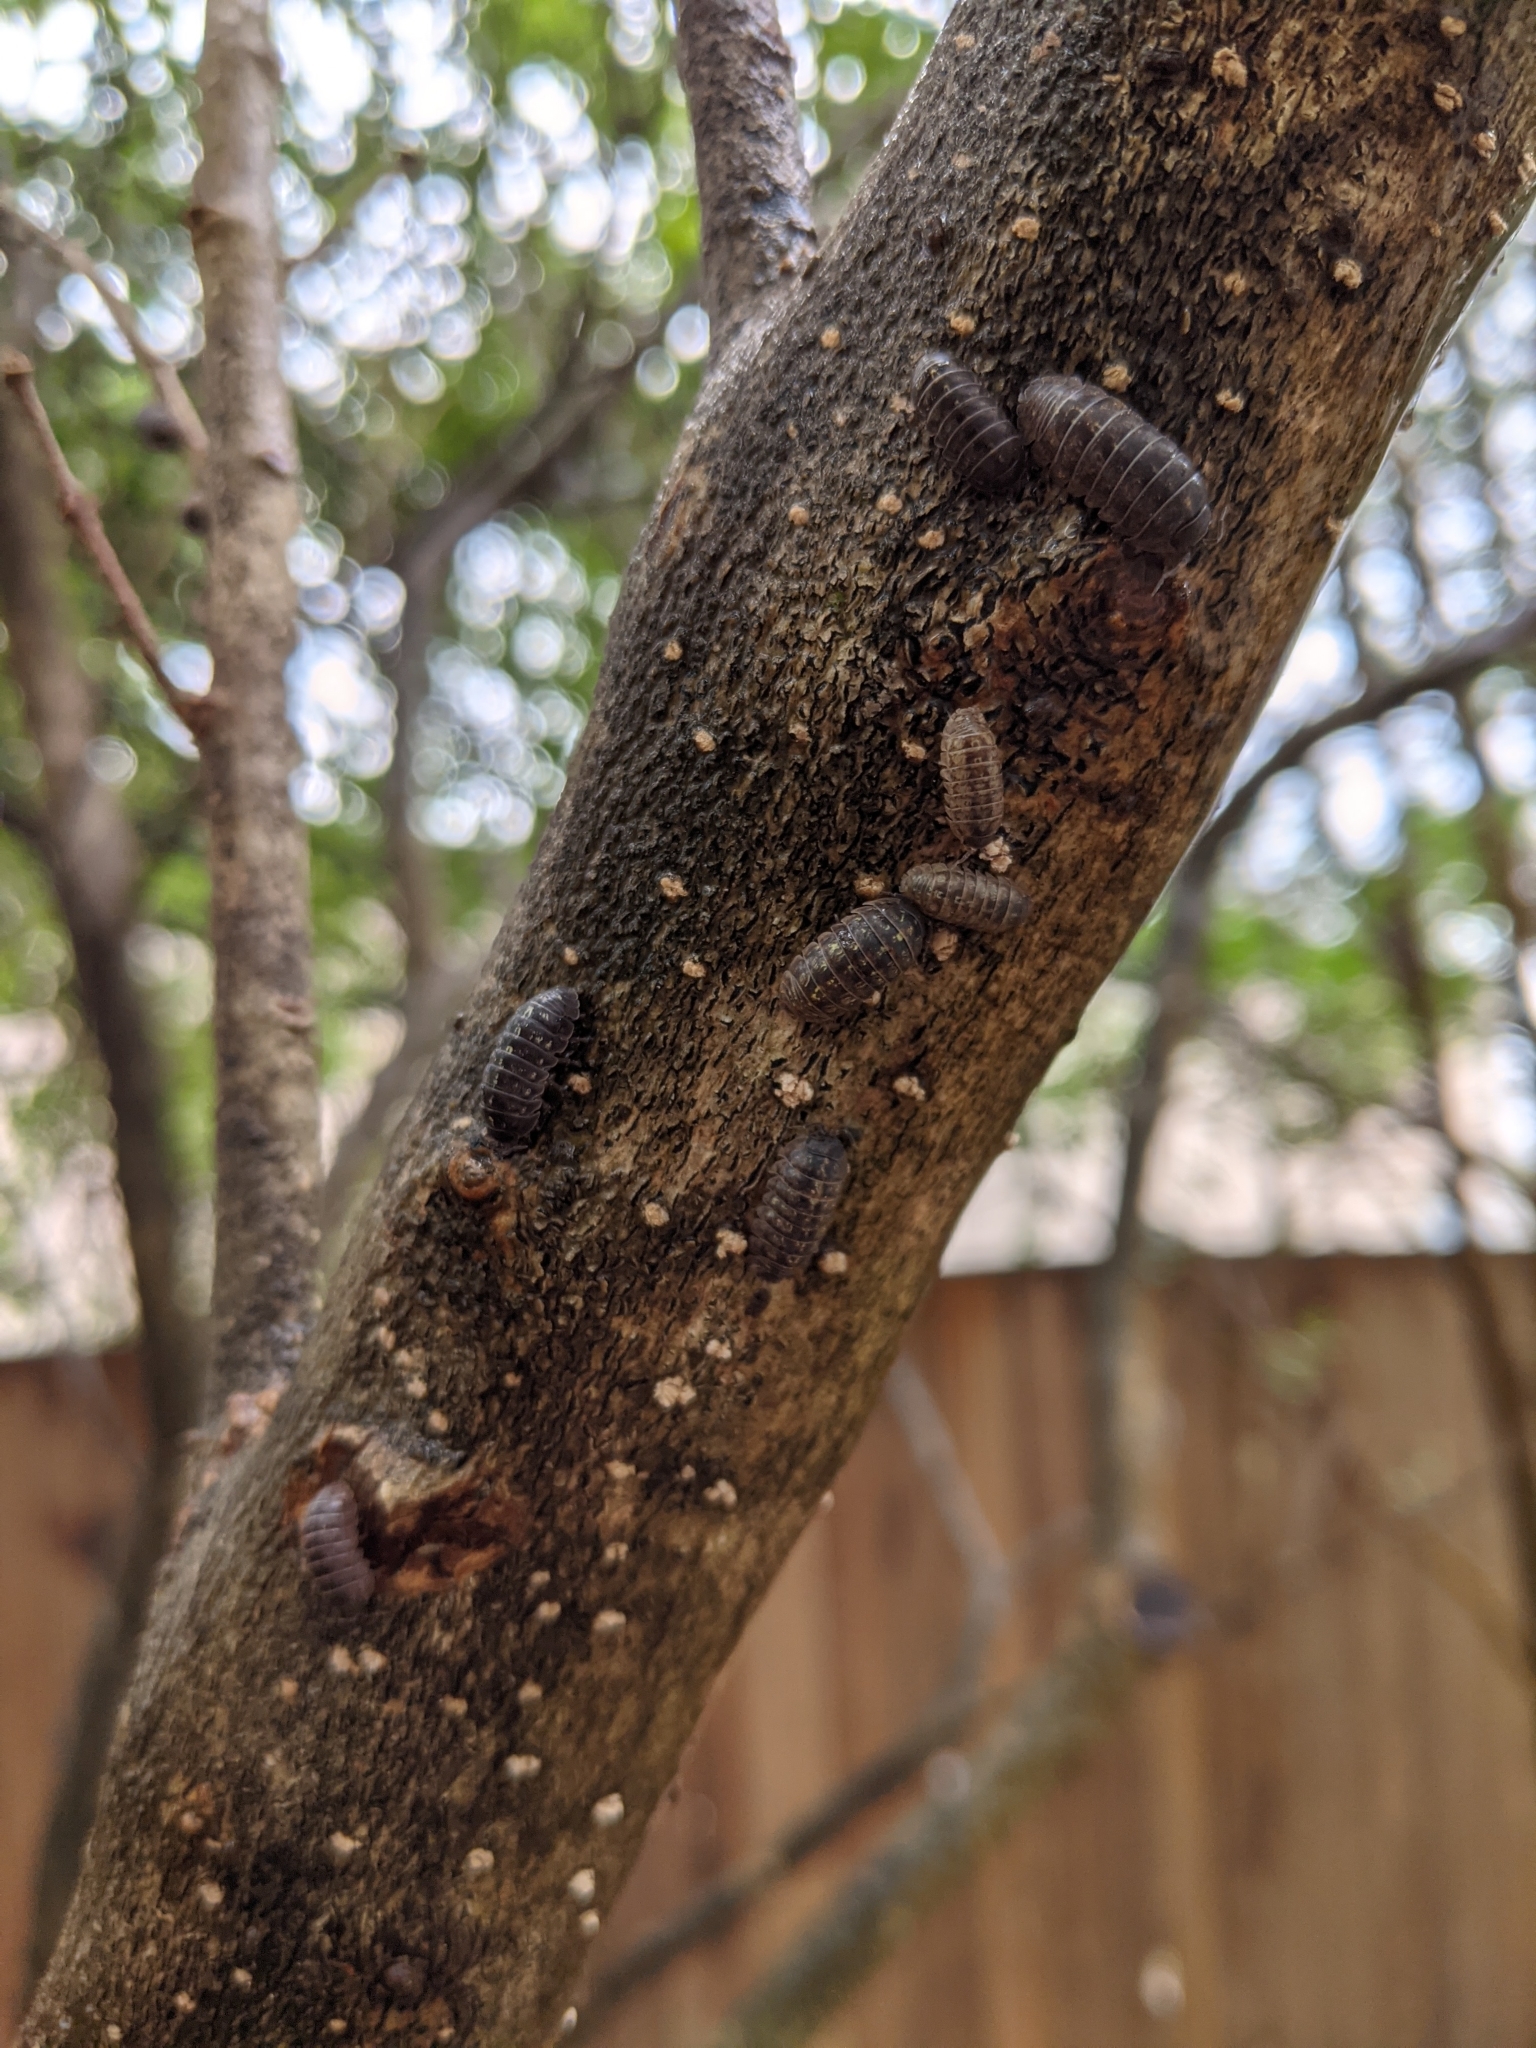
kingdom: Animalia
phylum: Arthropoda
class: Malacostraca
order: Isopoda
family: Armadillidiidae
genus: Armadillidium
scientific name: Armadillidium vulgare
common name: Common pill woodlouse
